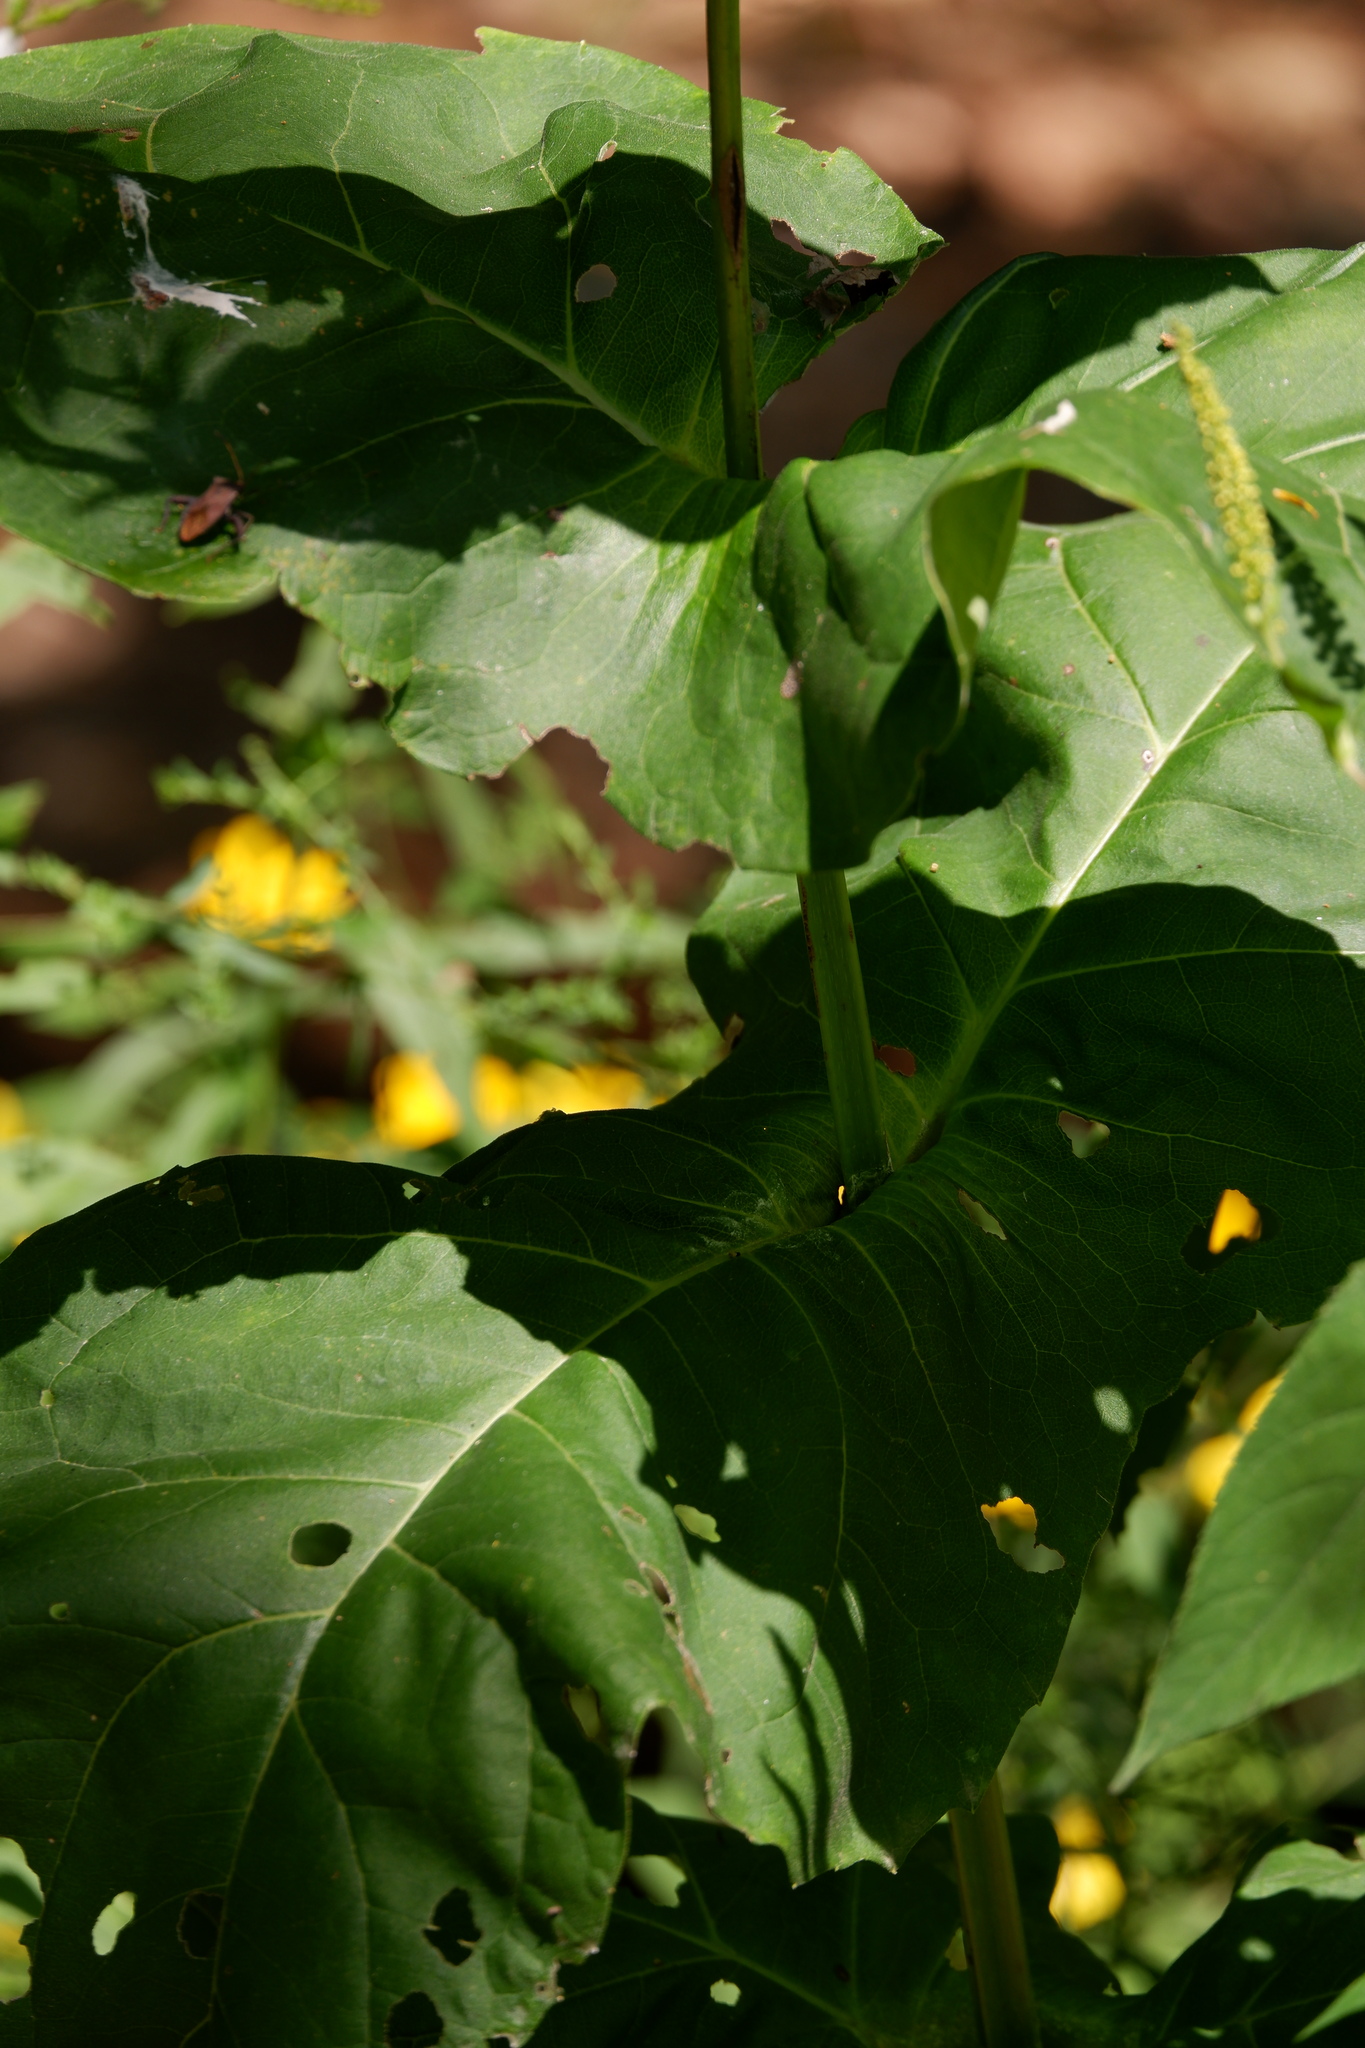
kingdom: Plantae
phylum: Tracheophyta
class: Magnoliopsida
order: Asterales
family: Asteraceae
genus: Silphium
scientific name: Silphium perfoliatum
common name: Cup-plant
